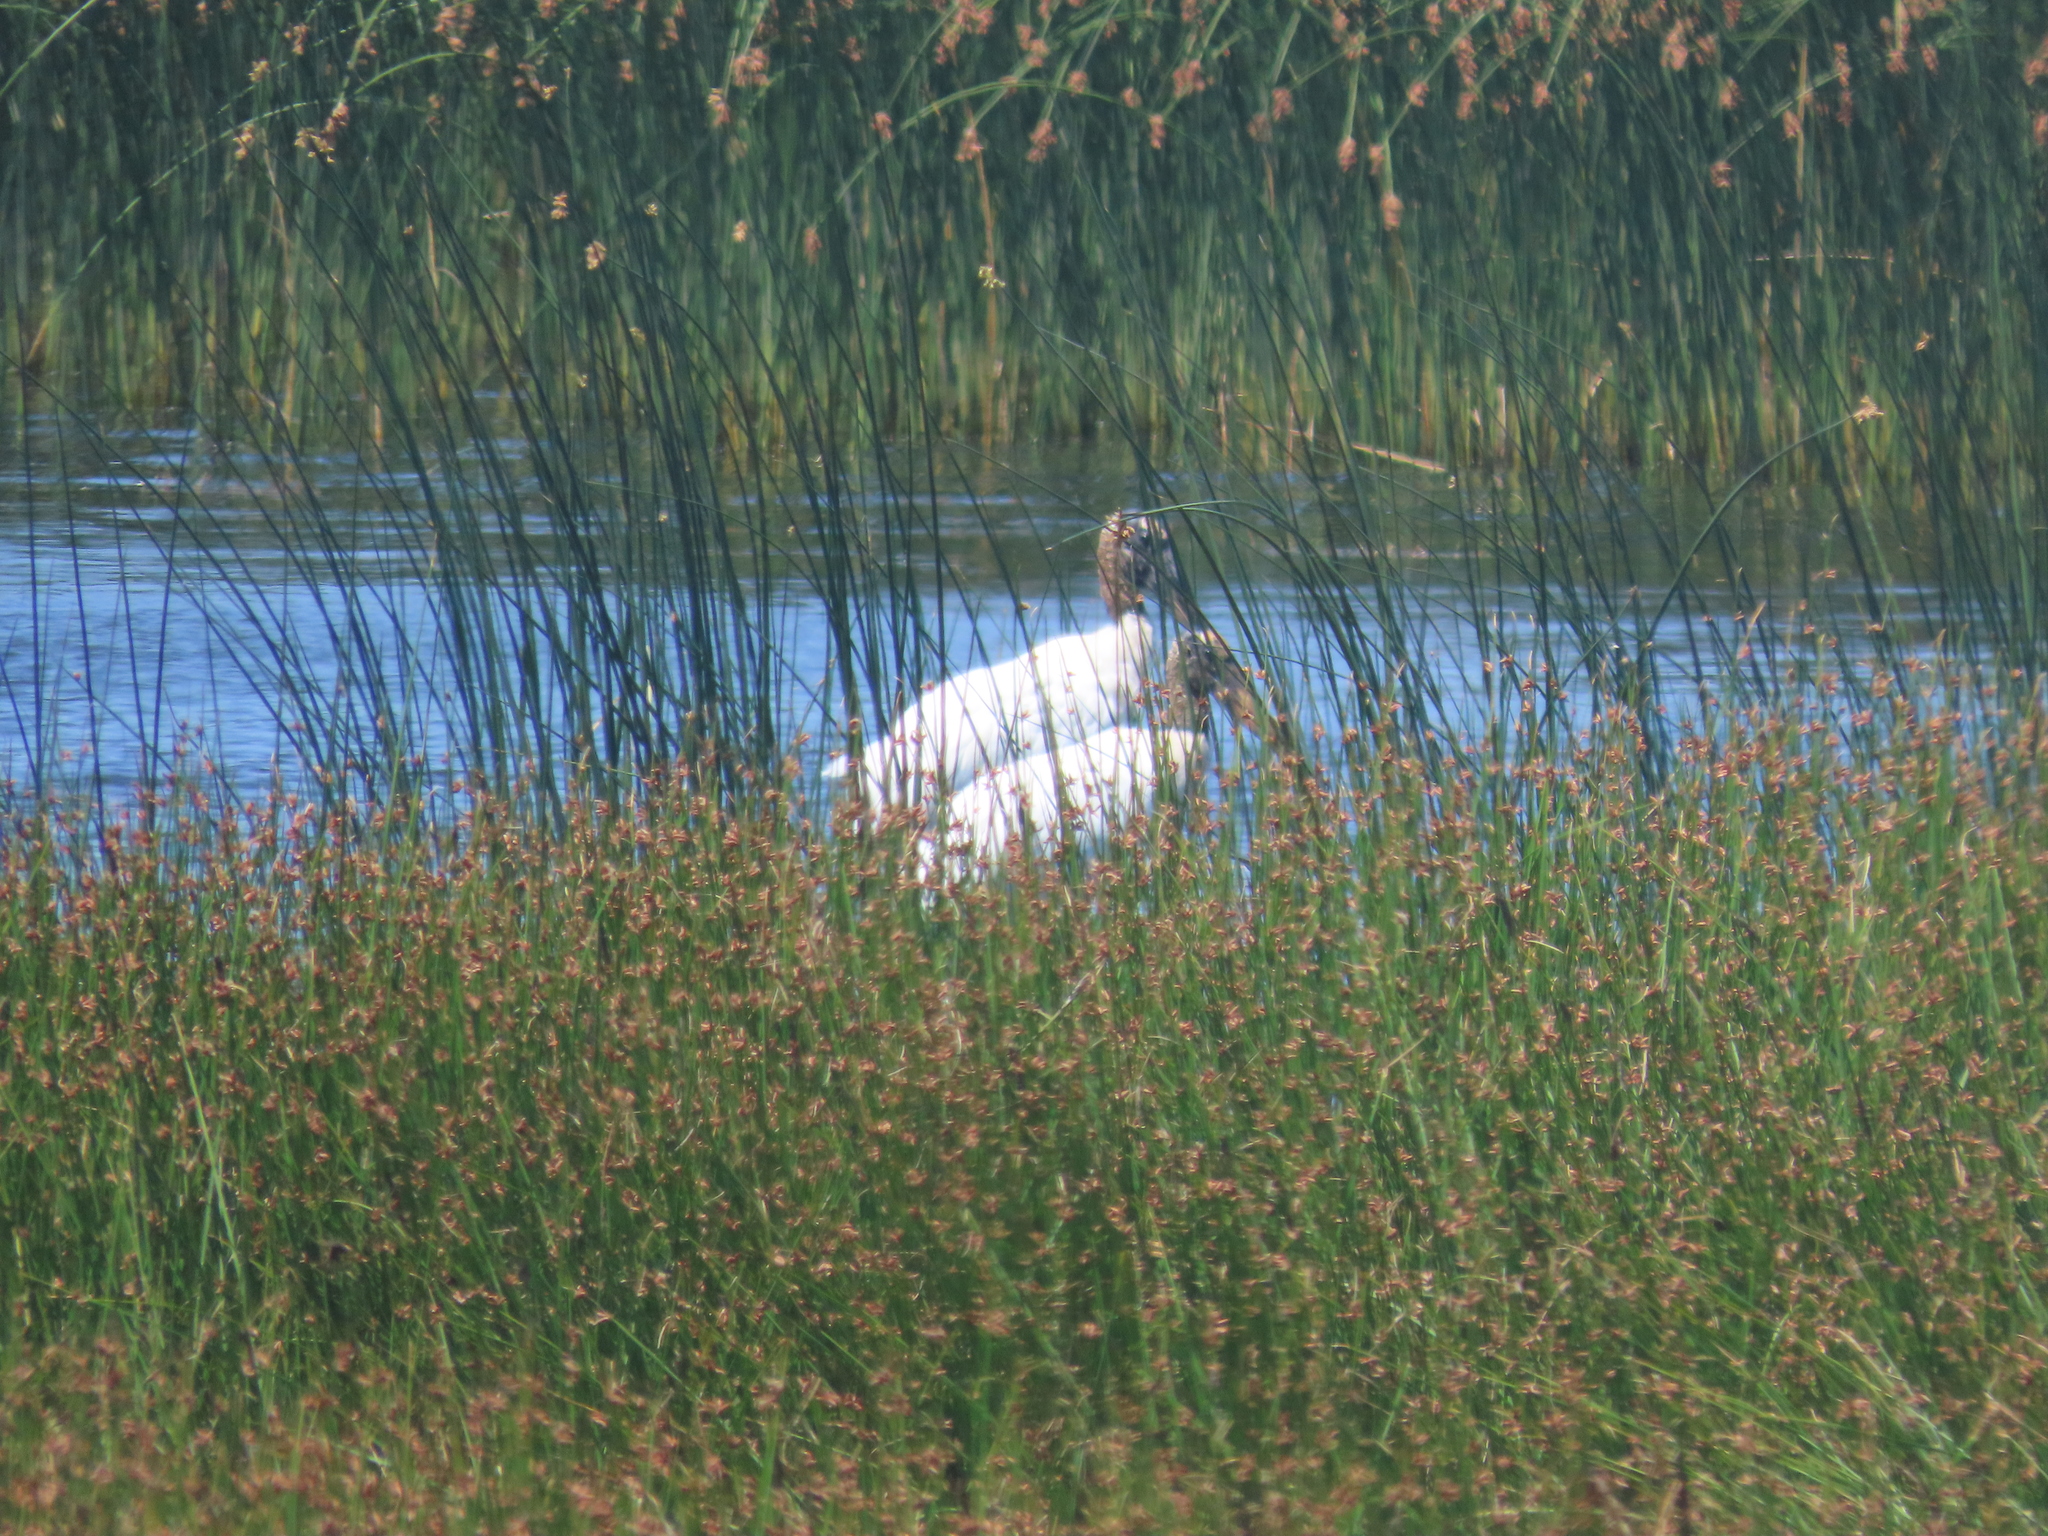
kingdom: Animalia
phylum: Chordata
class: Aves
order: Ciconiiformes
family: Ciconiidae
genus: Mycteria
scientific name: Mycteria americana
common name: Wood stork
